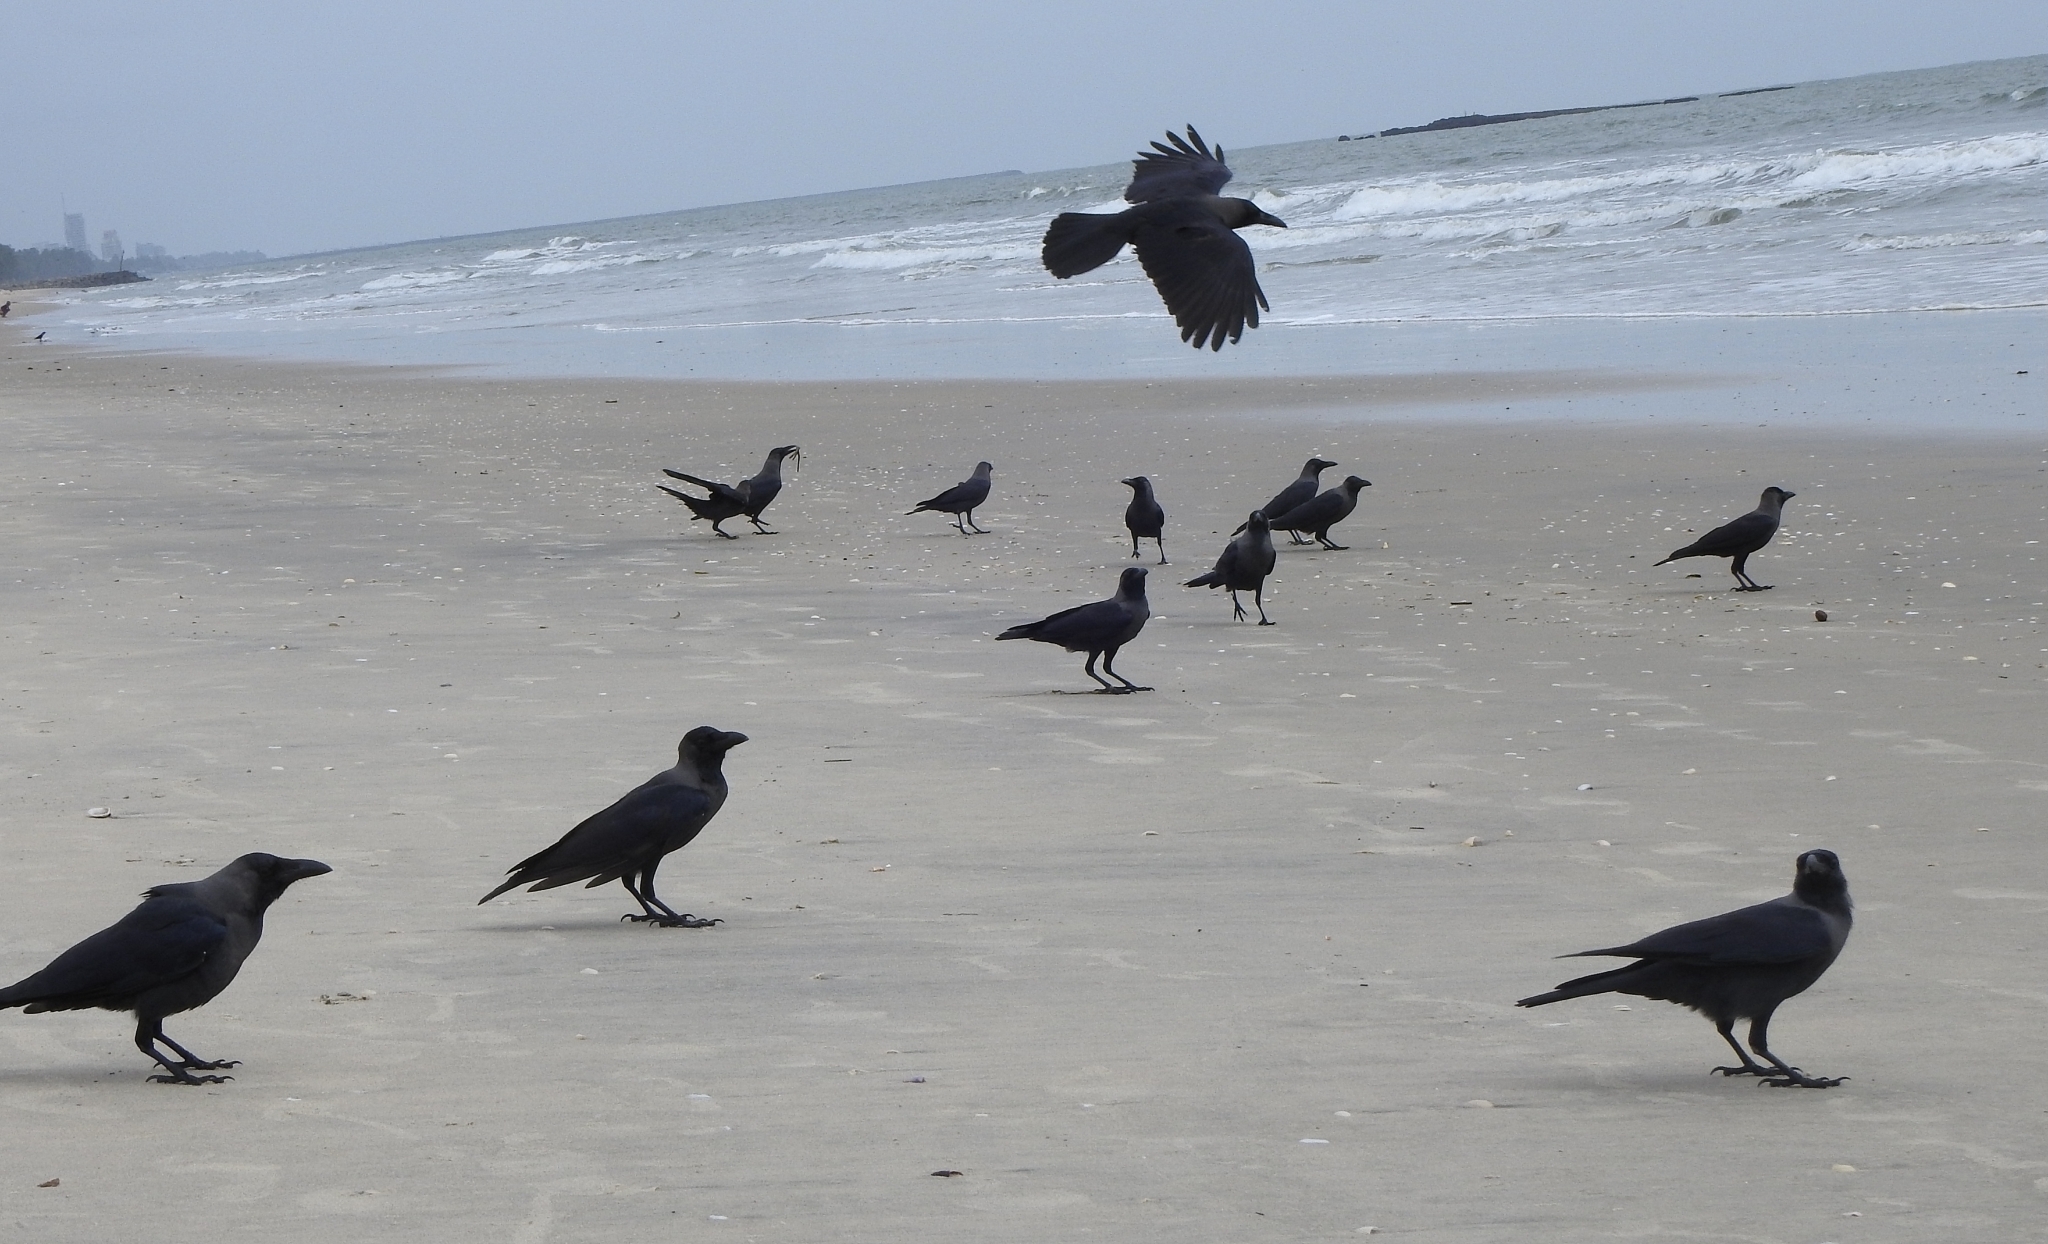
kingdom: Animalia
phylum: Chordata
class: Aves
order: Passeriformes
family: Corvidae
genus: Corvus
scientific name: Corvus splendens
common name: House crow
